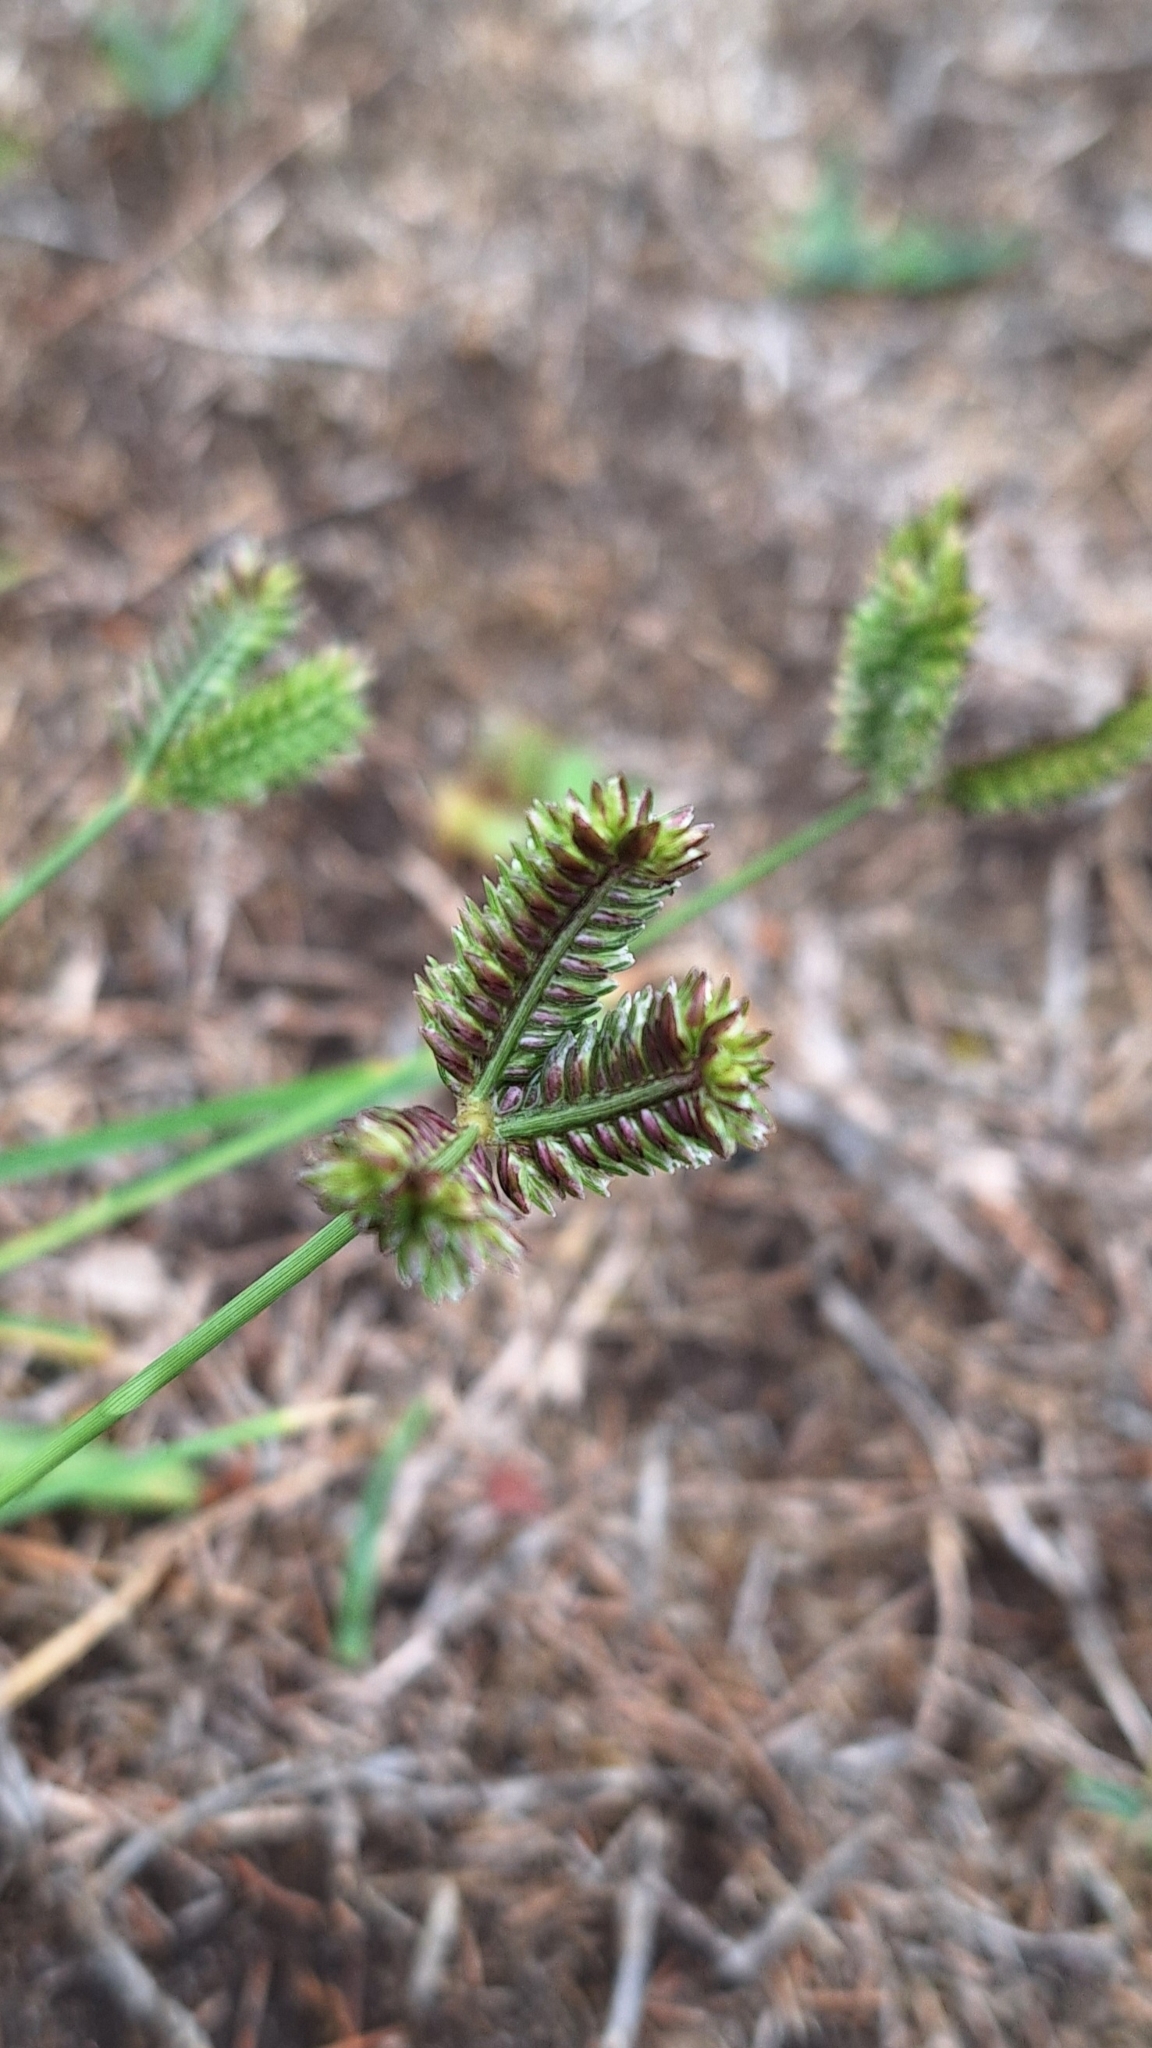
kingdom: Plantae
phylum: Tracheophyta
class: Liliopsida
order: Poales
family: Poaceae
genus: Eleusine
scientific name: Eleusine tristachya
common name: American yard-grass
